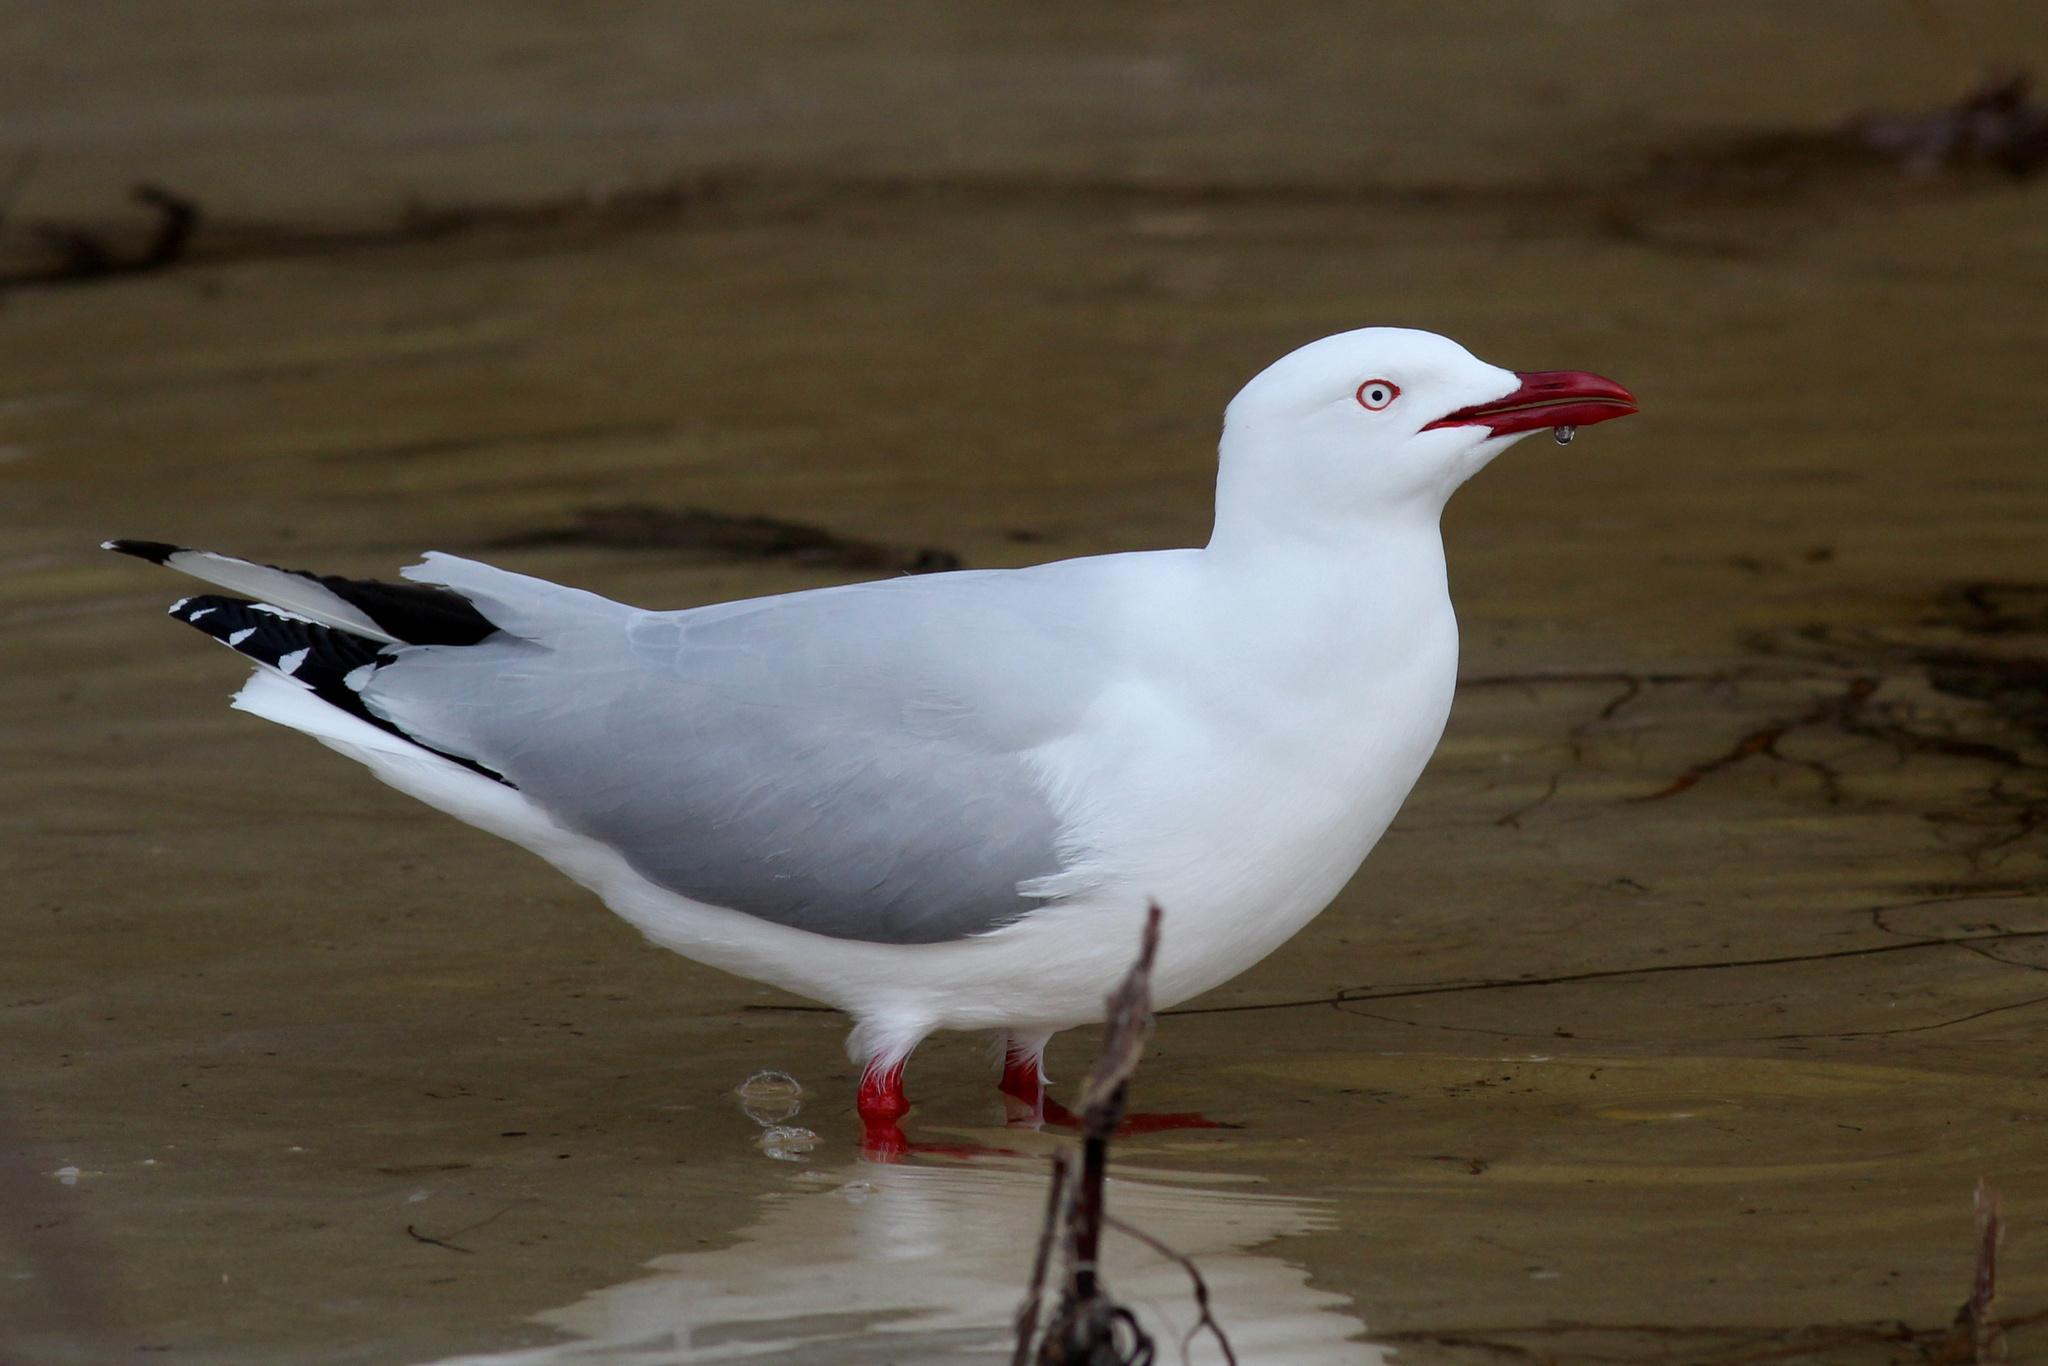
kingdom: Animalia
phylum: Chordata
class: Aves
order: Charadriiformes
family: Laridae
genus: Chroicocephalus
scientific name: Chroicocephalus novaehollandiae
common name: Silver gull
